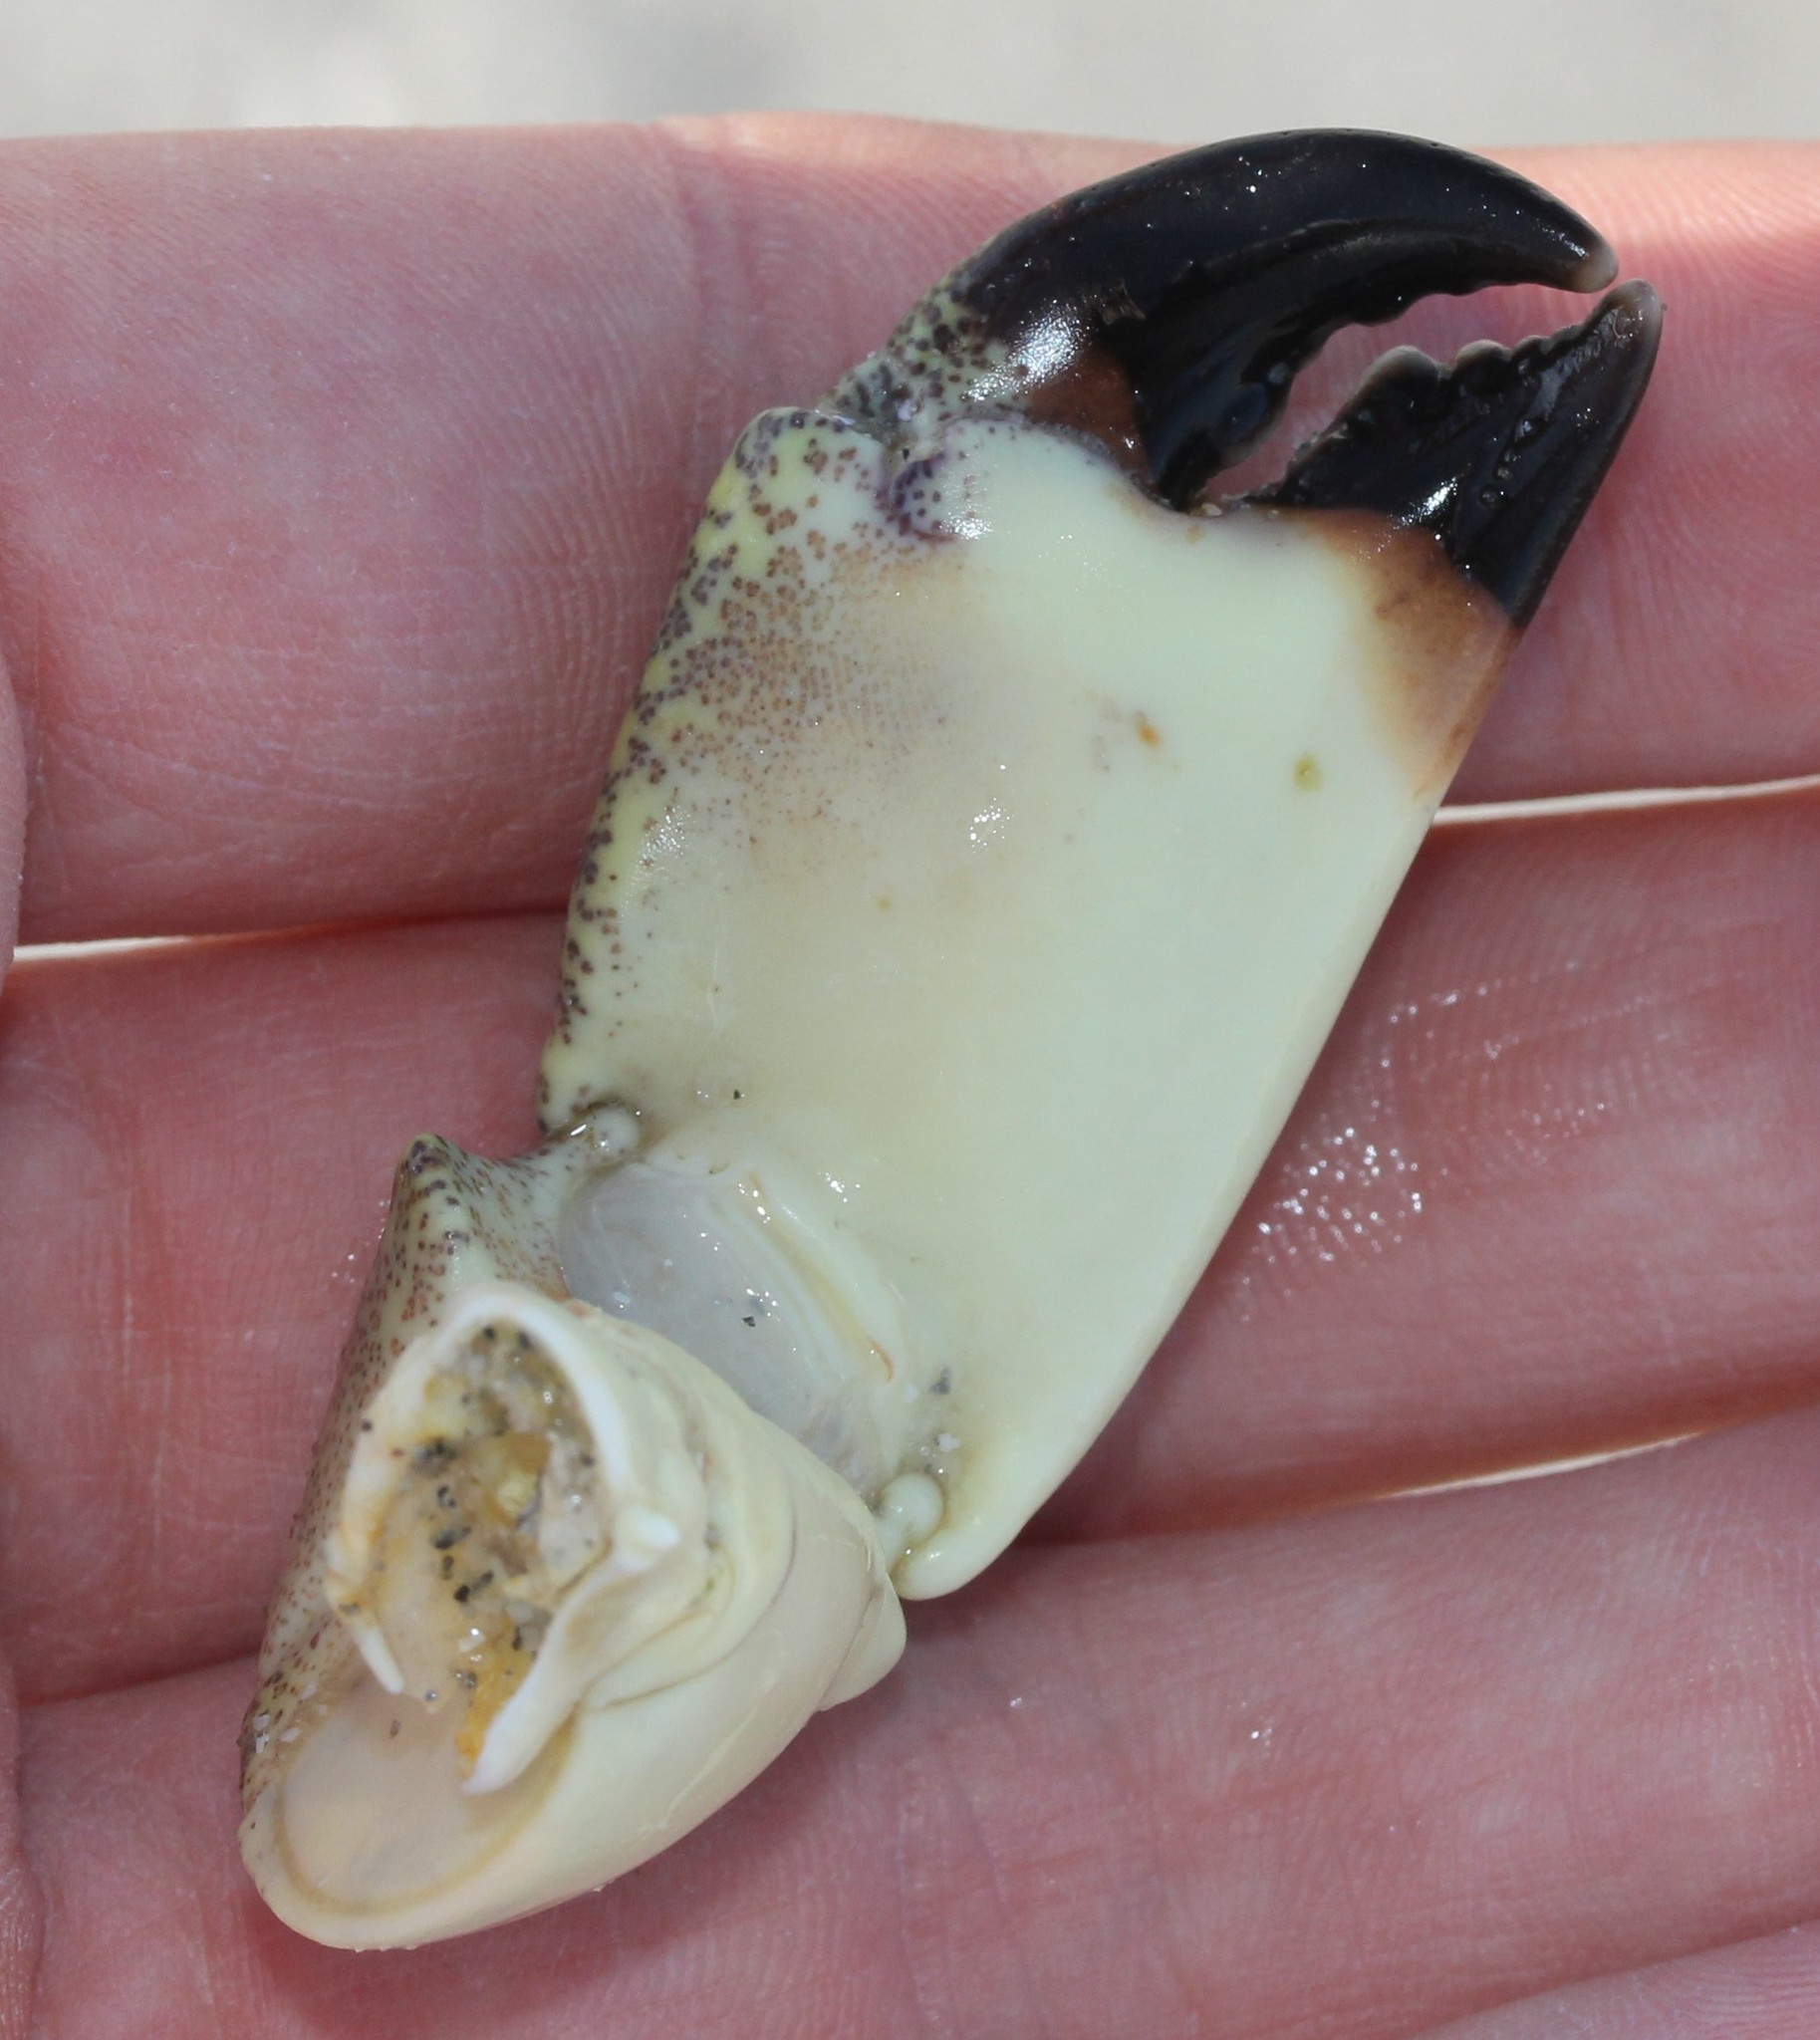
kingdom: Animalia
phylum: Arthropoda
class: Malacostraca
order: Decapoda
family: Menippidae
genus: Menippe
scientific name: Menippe mercenaria
